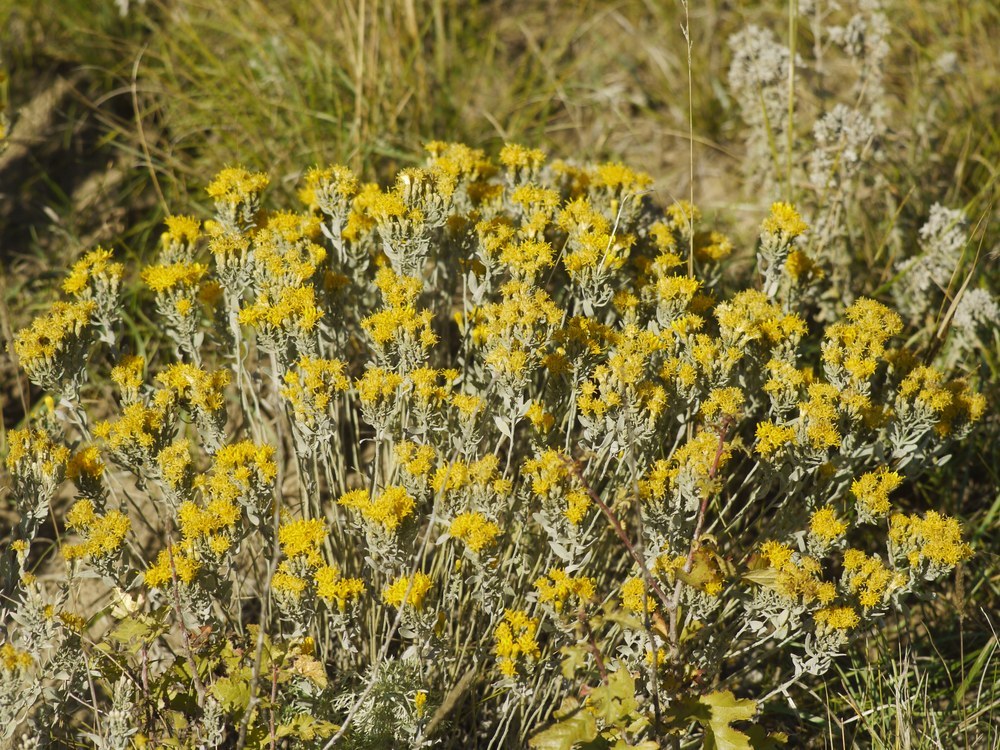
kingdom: Plantae
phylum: Tracheophyta
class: Magnoliopsida
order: Asterales
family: Asteraceae
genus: Galatella
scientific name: Galatella villosa
